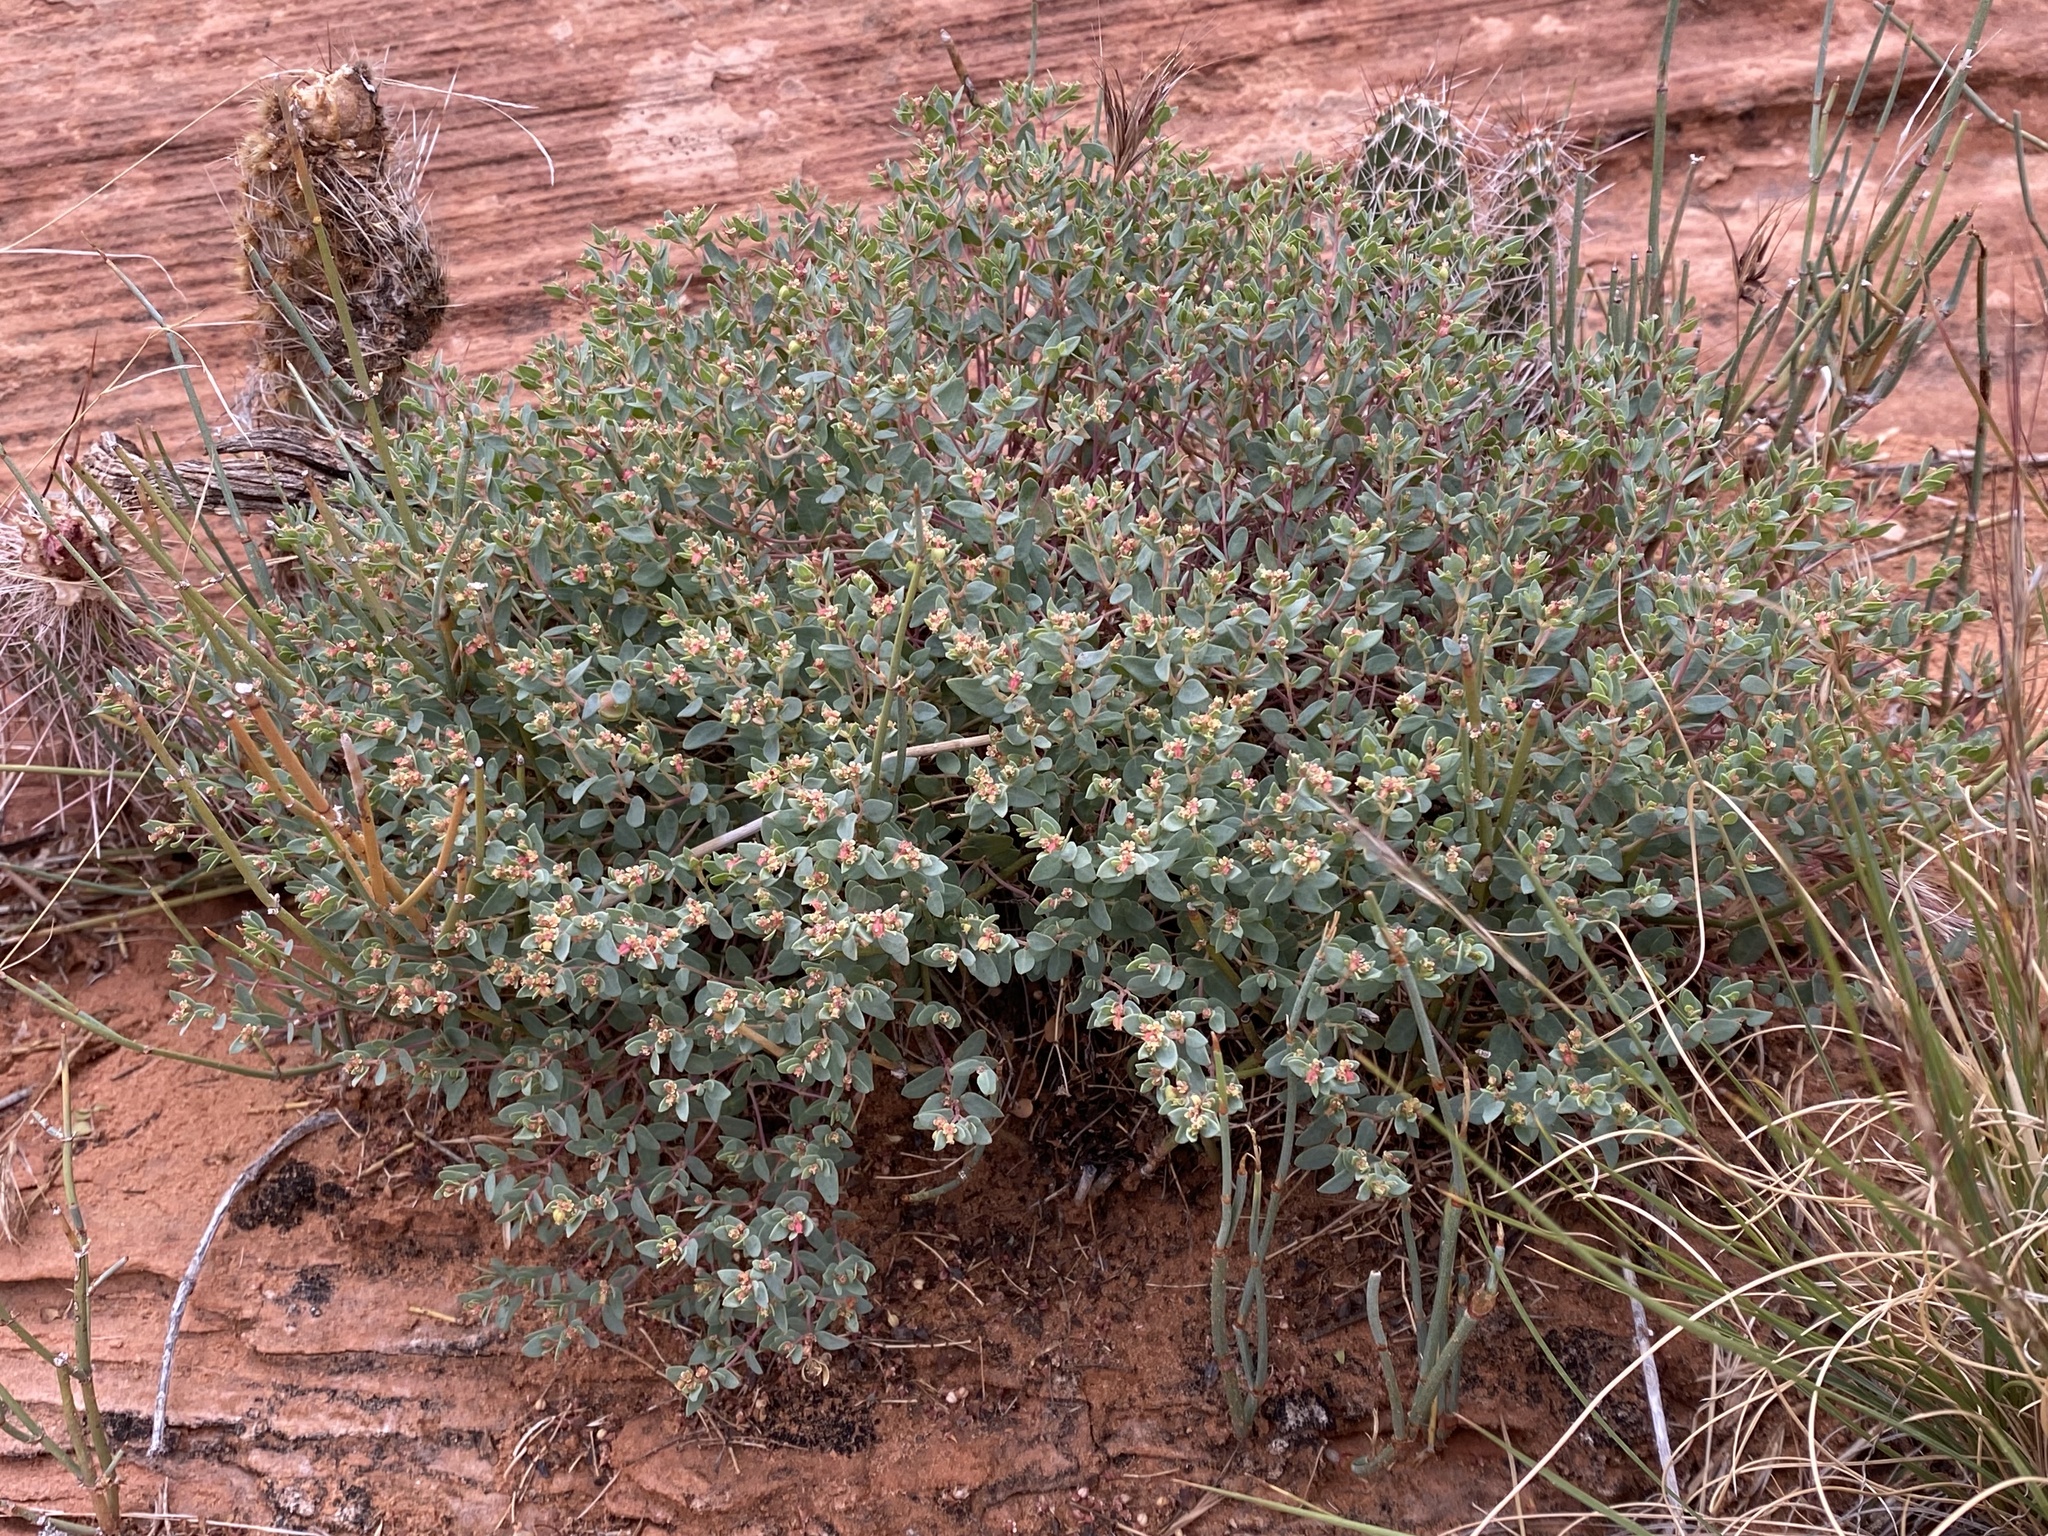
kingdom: Plantae
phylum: Tracheophyta
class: Magnoliopsida
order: Malpighiales
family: Euphorbiaceae
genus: Euphorbia
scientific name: Euphorbia fendleri
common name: Fendler's euphorbia
